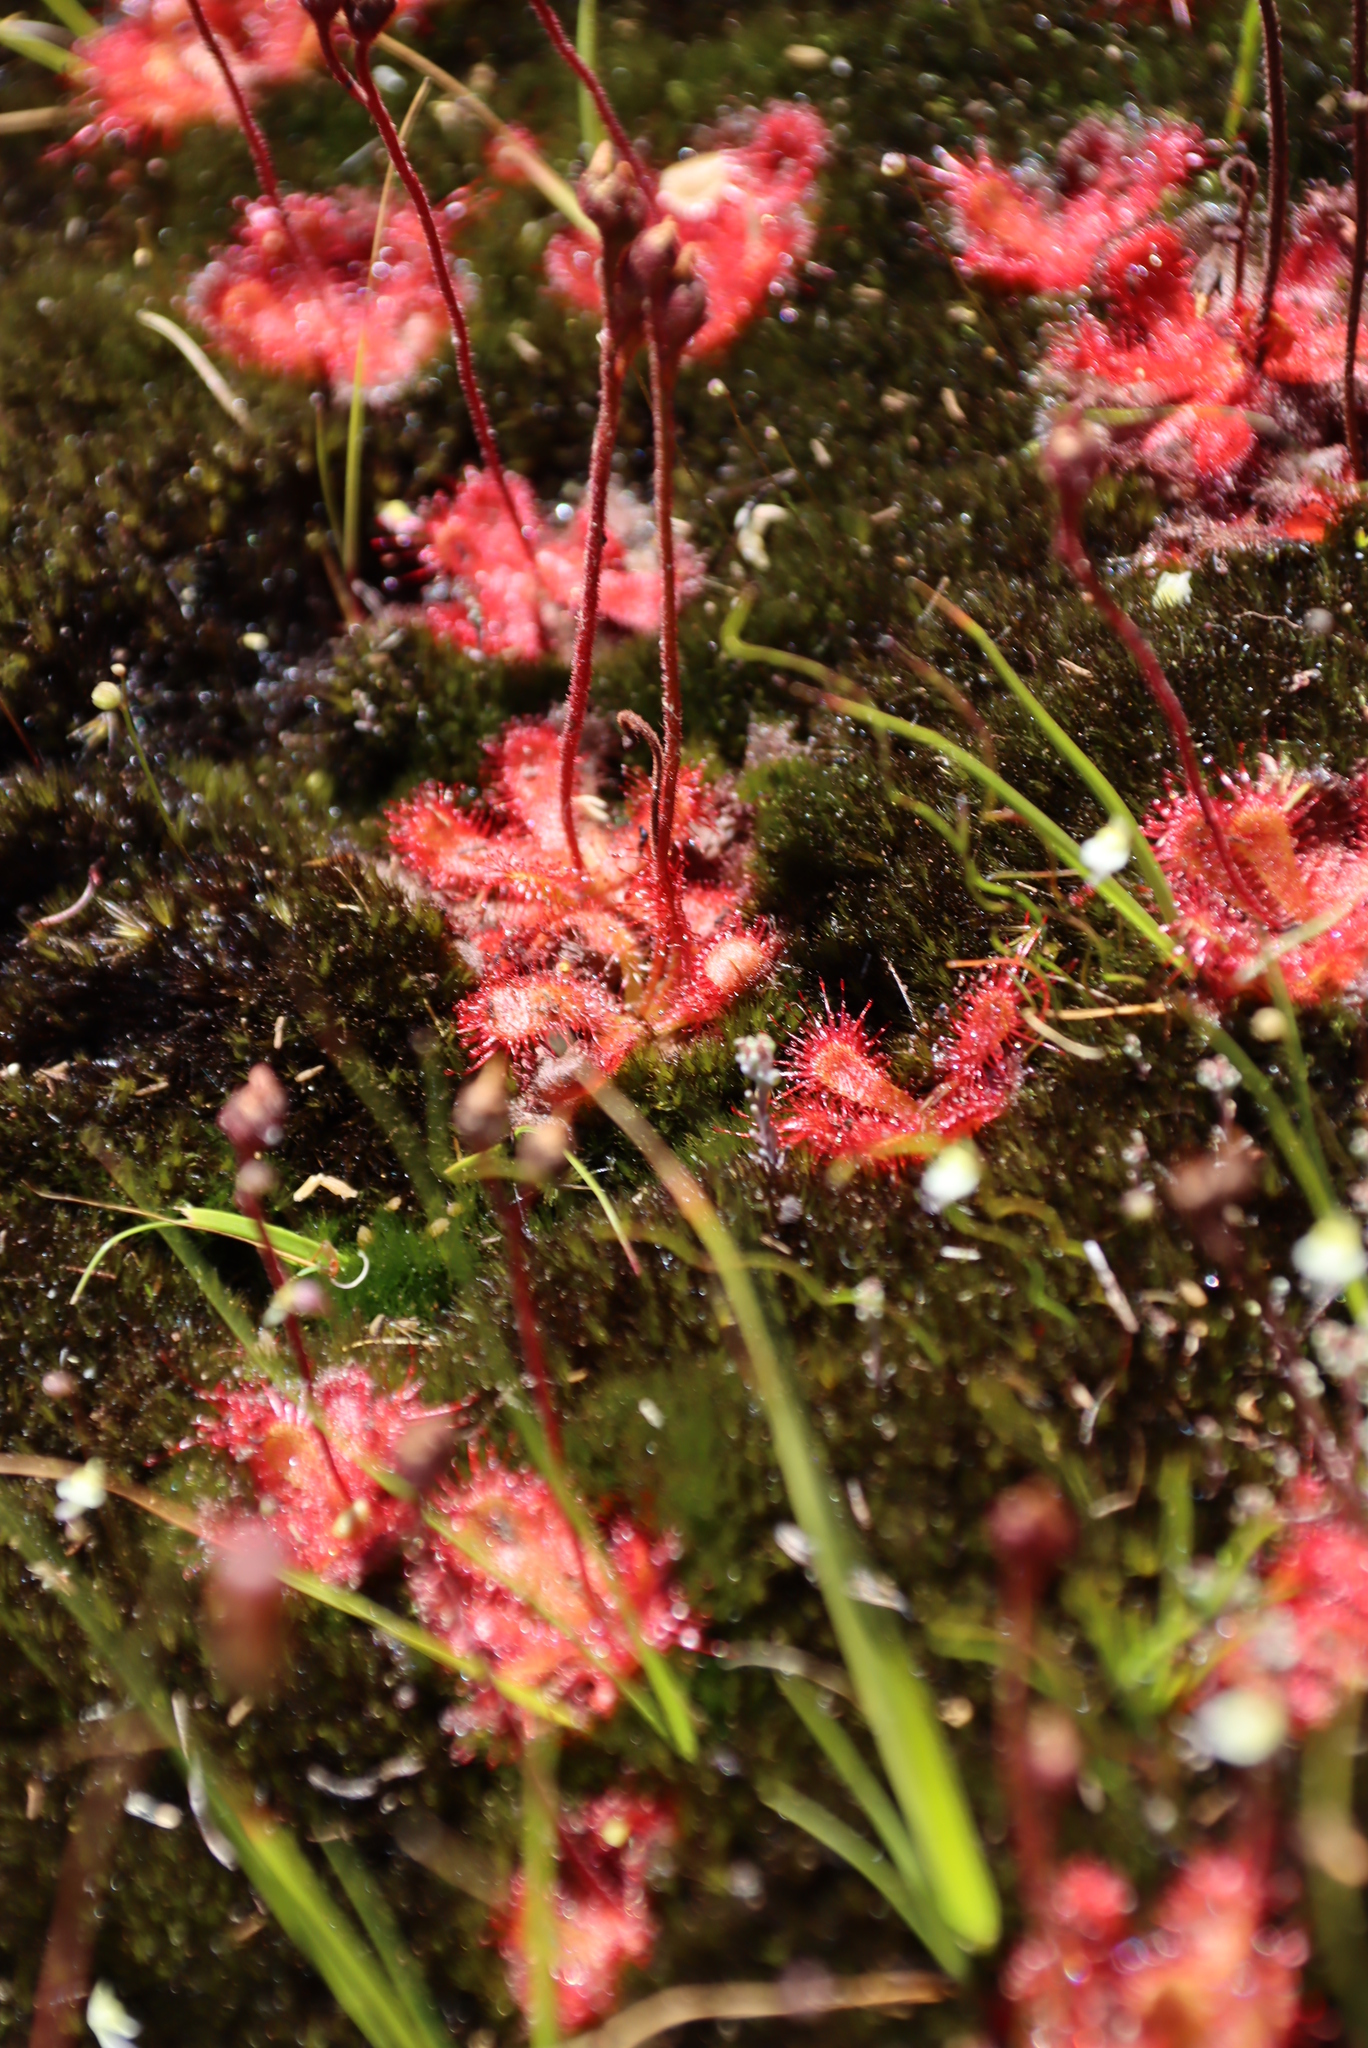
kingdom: Plantae
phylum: Bryophyta
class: Bryopsida
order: Dicranales
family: Leucobryaceae
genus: Campylopus
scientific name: Campylopus bicolor
